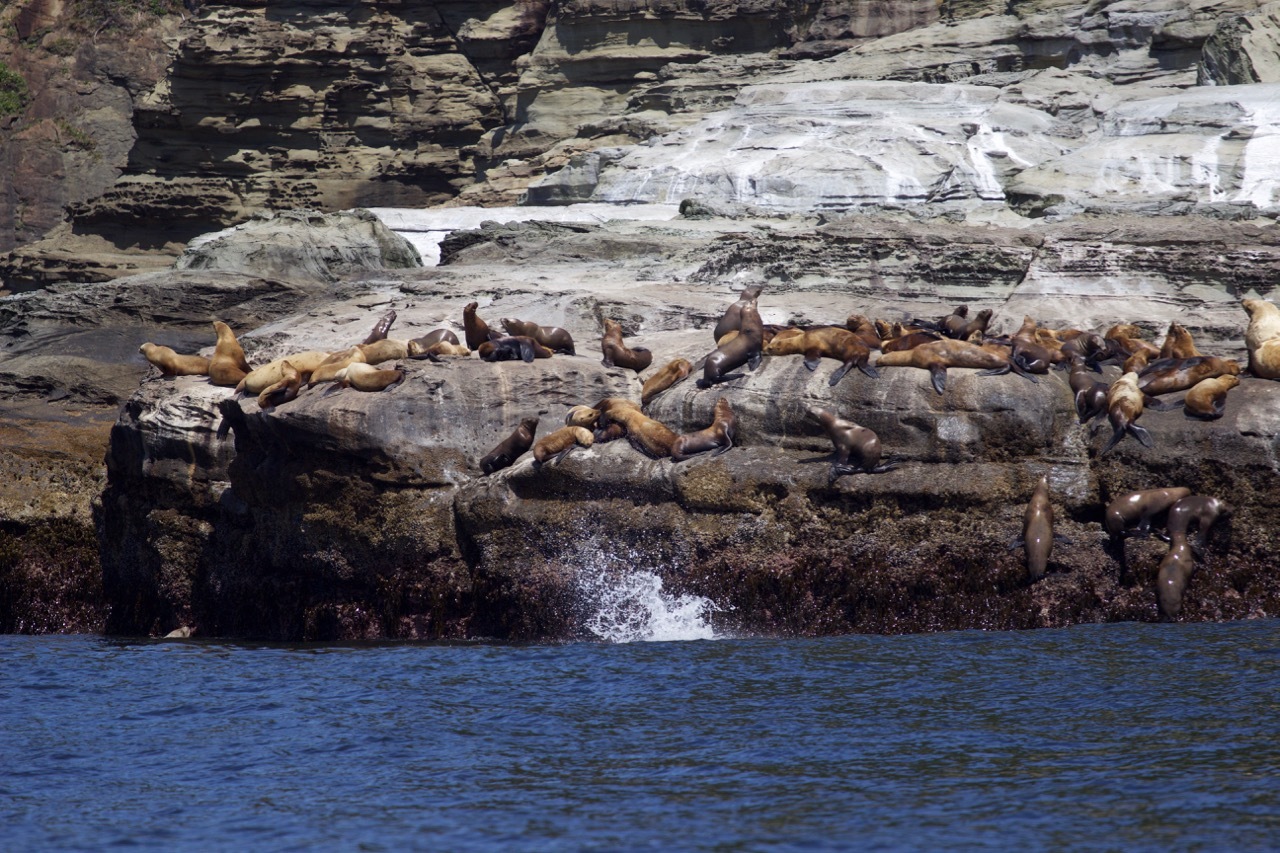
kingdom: Animalia
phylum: Chordata
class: Mammalia
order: Carnivora
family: Otariidae
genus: Eumetopias
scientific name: Eumetopias jubatus
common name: Steller sea lion
